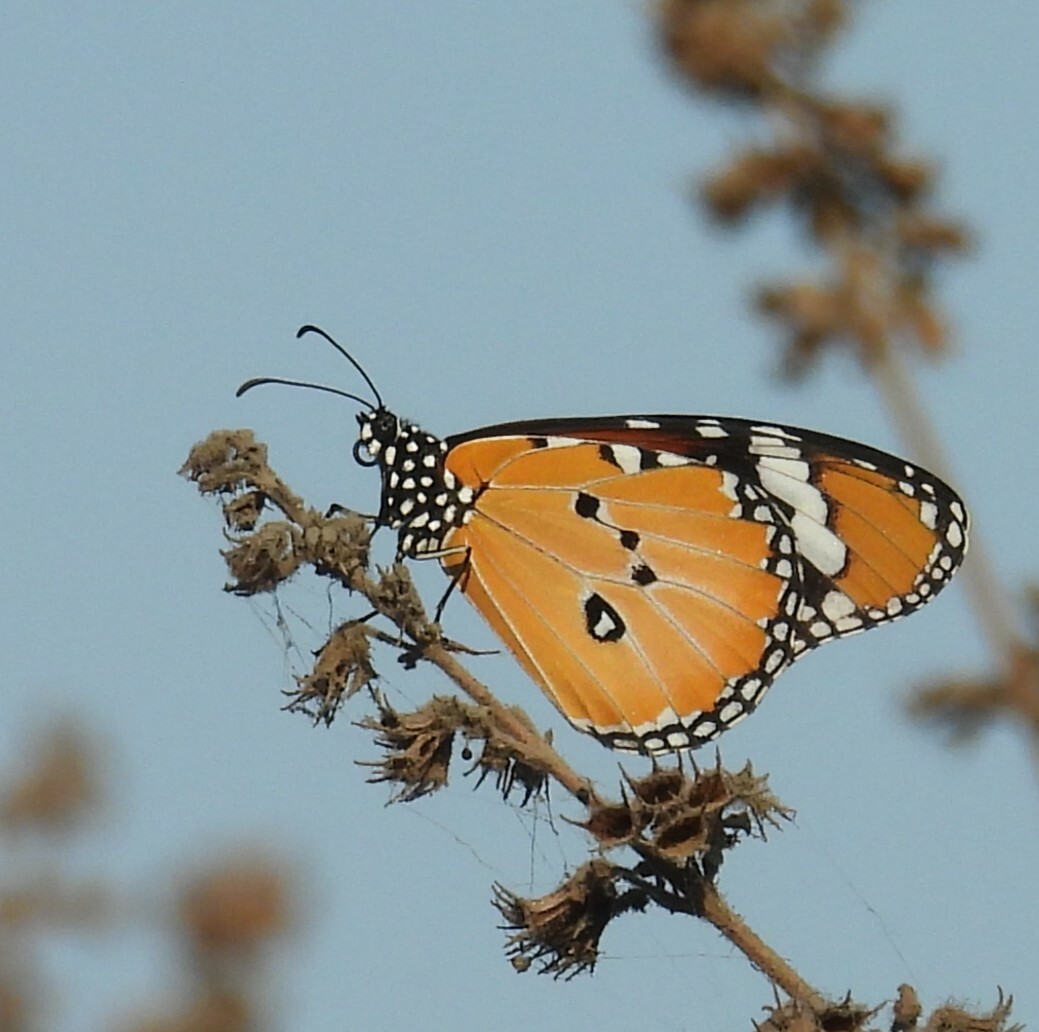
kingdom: Animalia
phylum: Arthropoda
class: Insecta
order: Lepidoptera
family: Nymphalidae
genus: Danaus
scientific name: Danaus chrysippus
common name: Plain tiger
